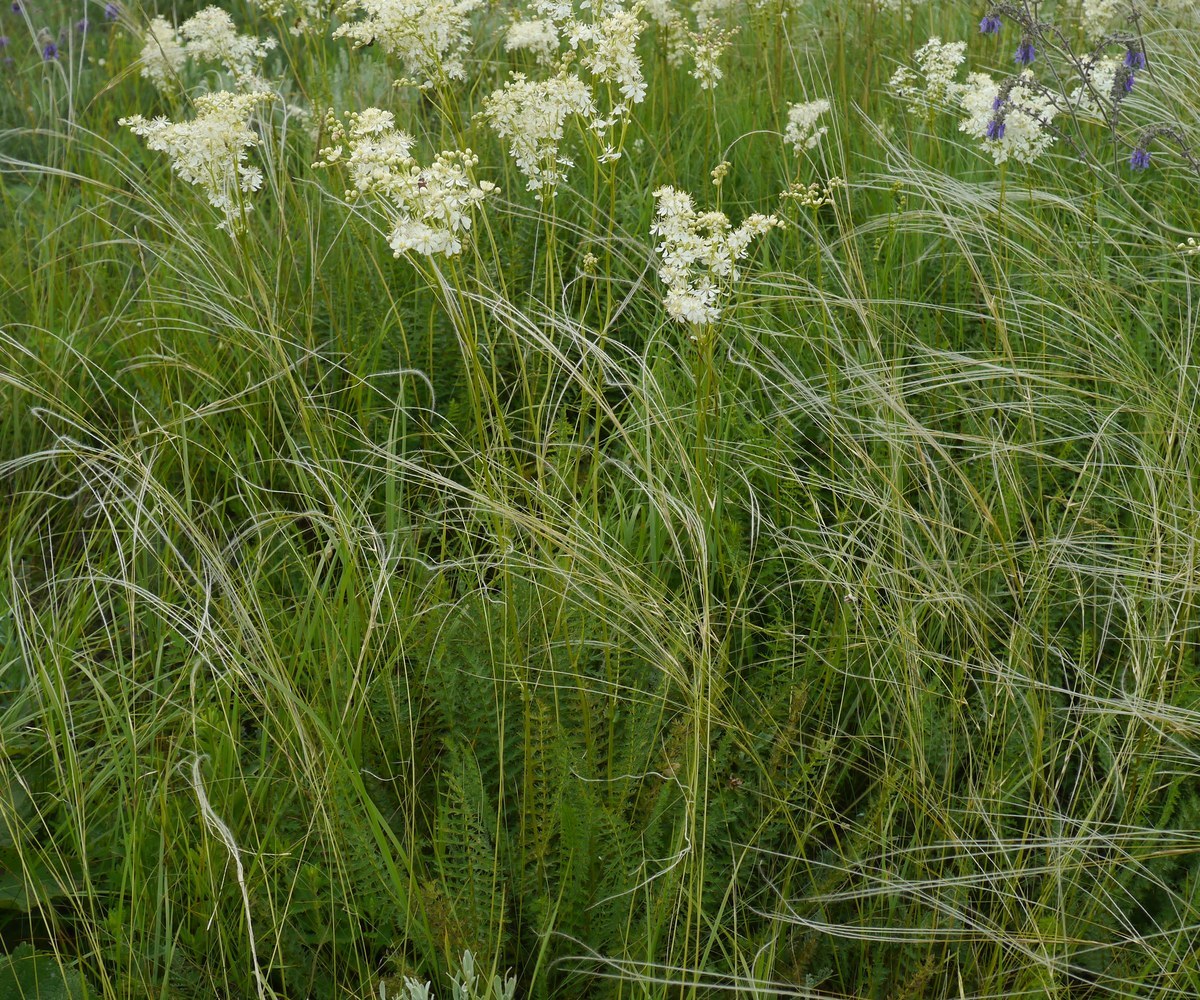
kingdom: Plantae
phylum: Tracheophyta
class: Magnoliopsida
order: Rosales
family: Rosaceae
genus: Filipendula
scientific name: Filipendula vulgaris
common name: Dropwort
